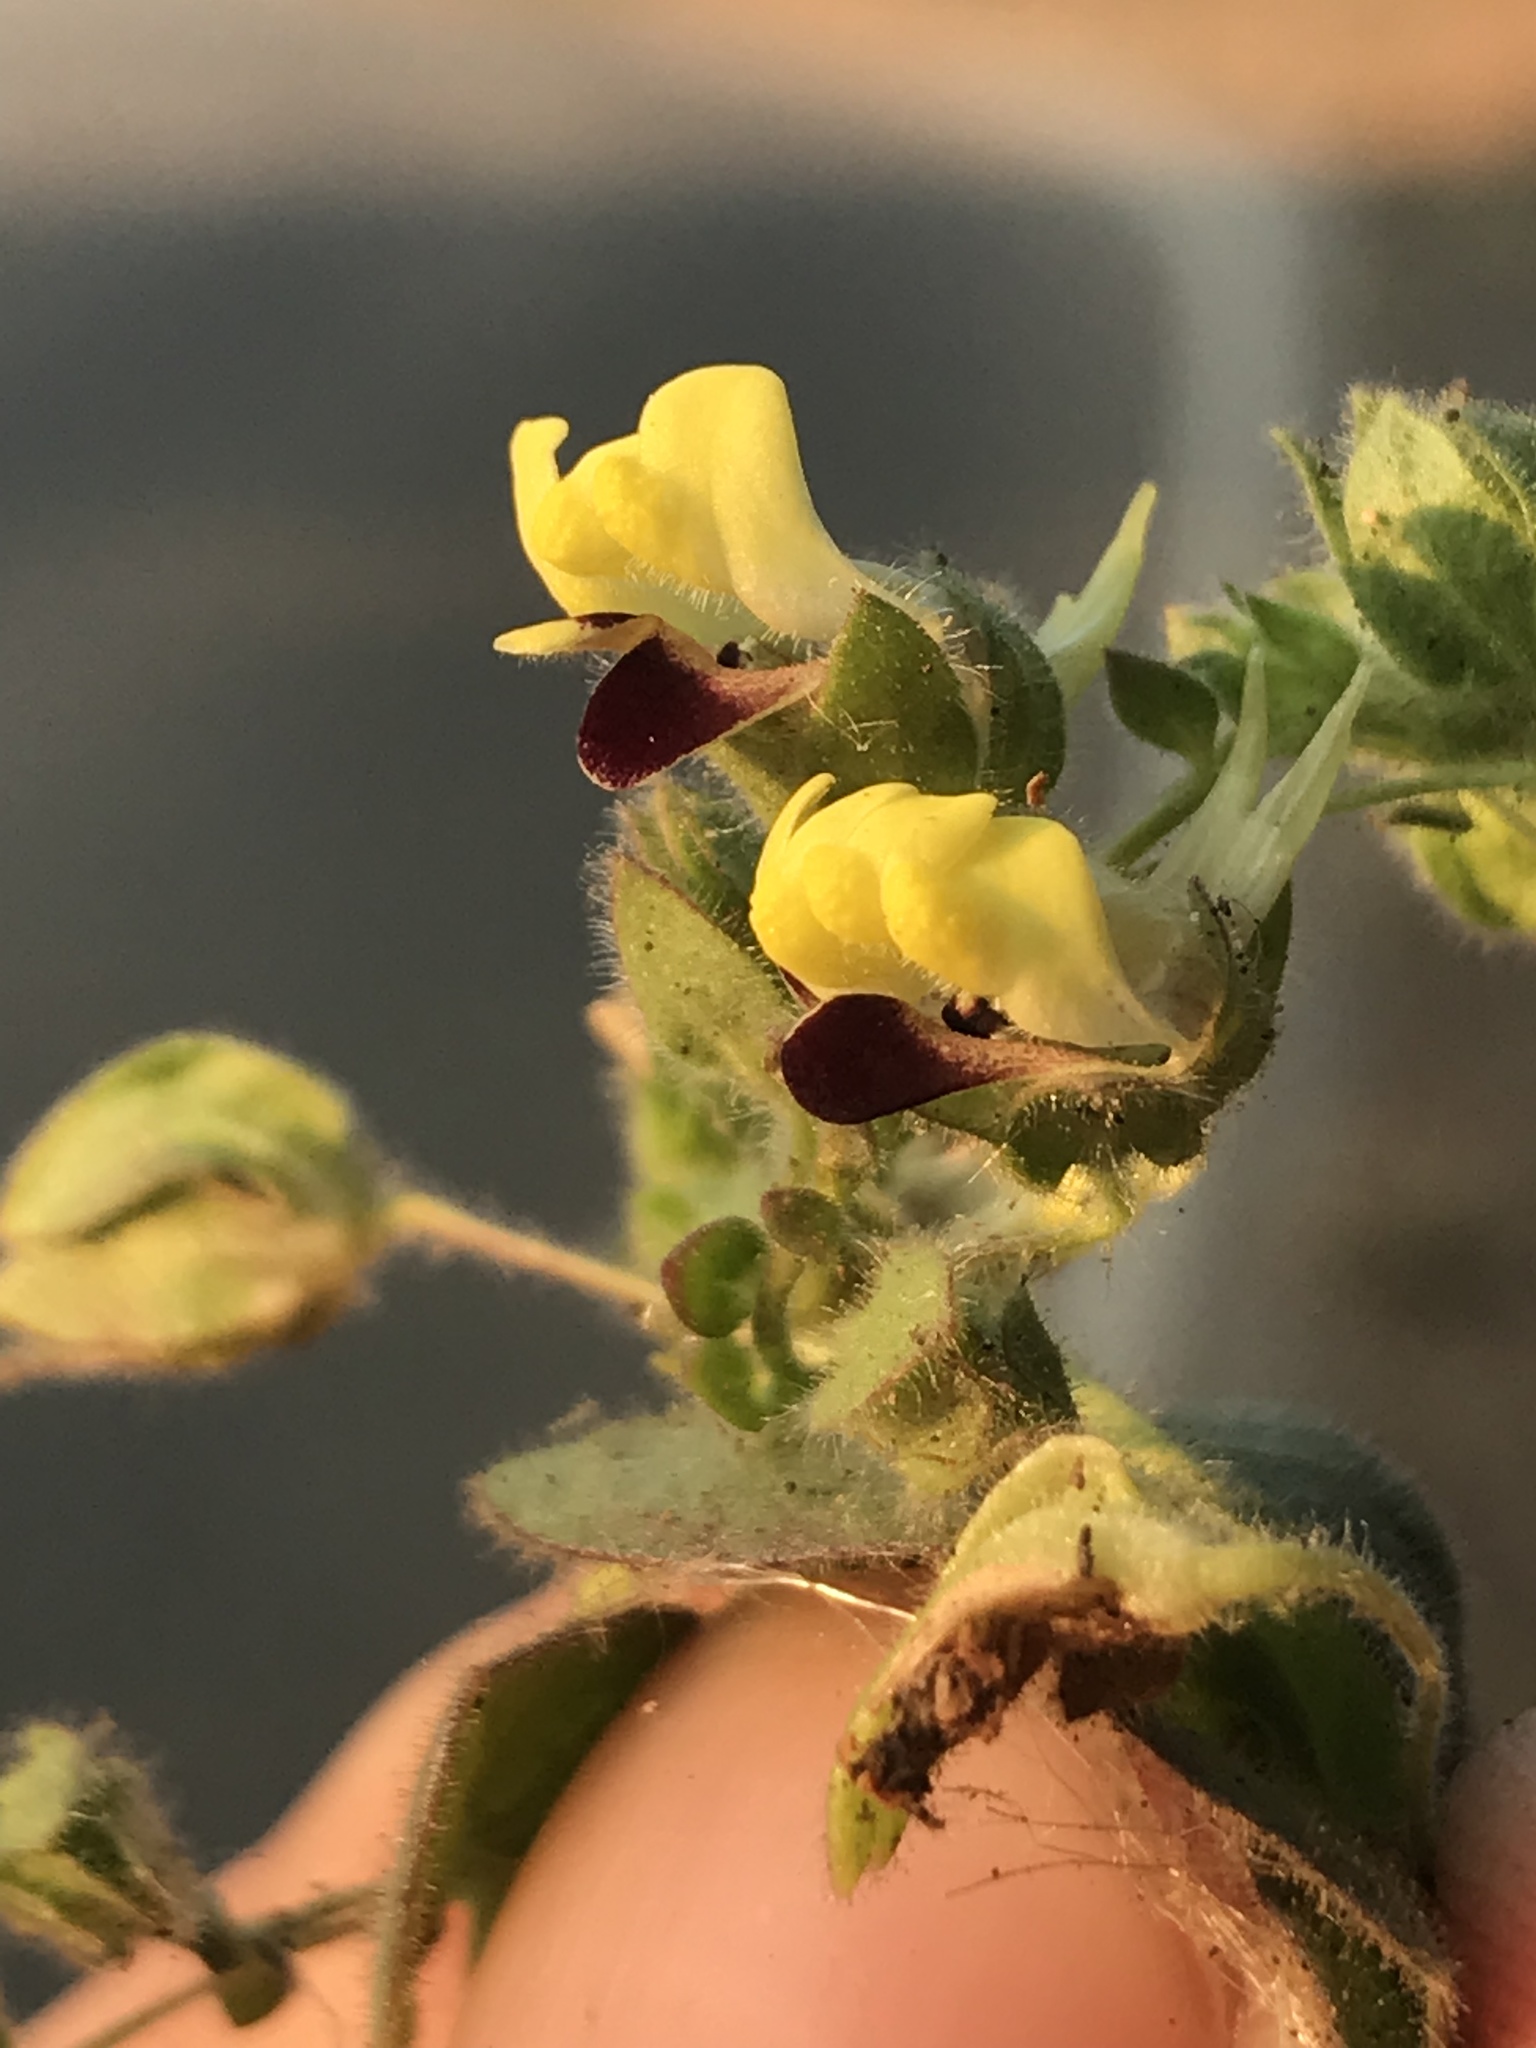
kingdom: Plantae
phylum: Tracheophyta
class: Magnoliopsida
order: Lamiales
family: Plantaginaceae
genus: Kickxia
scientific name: Kickxia elatine
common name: Sharp-leaved fluellen
